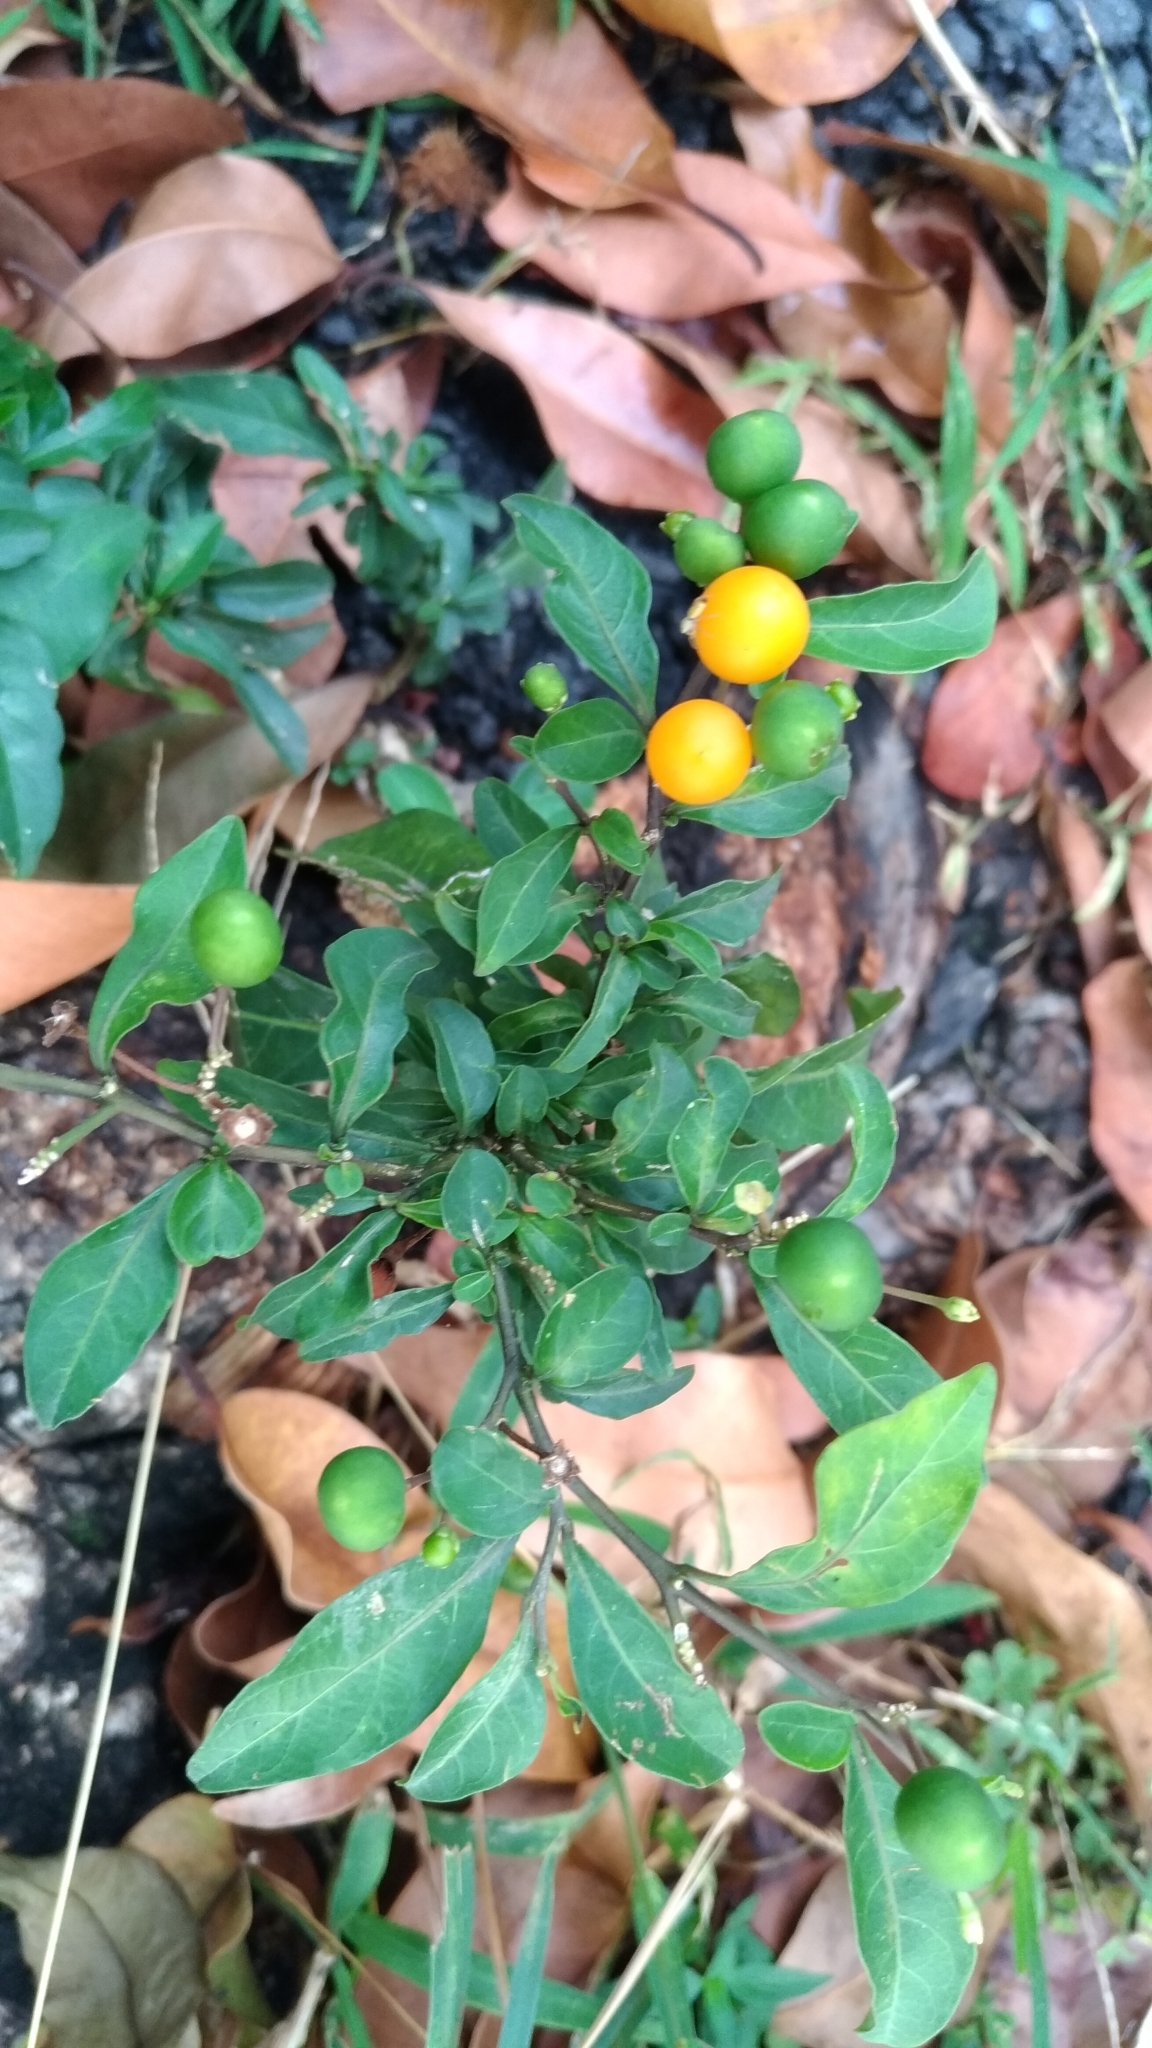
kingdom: Plantae
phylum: Tracheophyta
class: Magnoliopsida
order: Solanales
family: Solanaceae
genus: Solanum
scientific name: Solanum diphyllum
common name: Twoleaf nightshade
